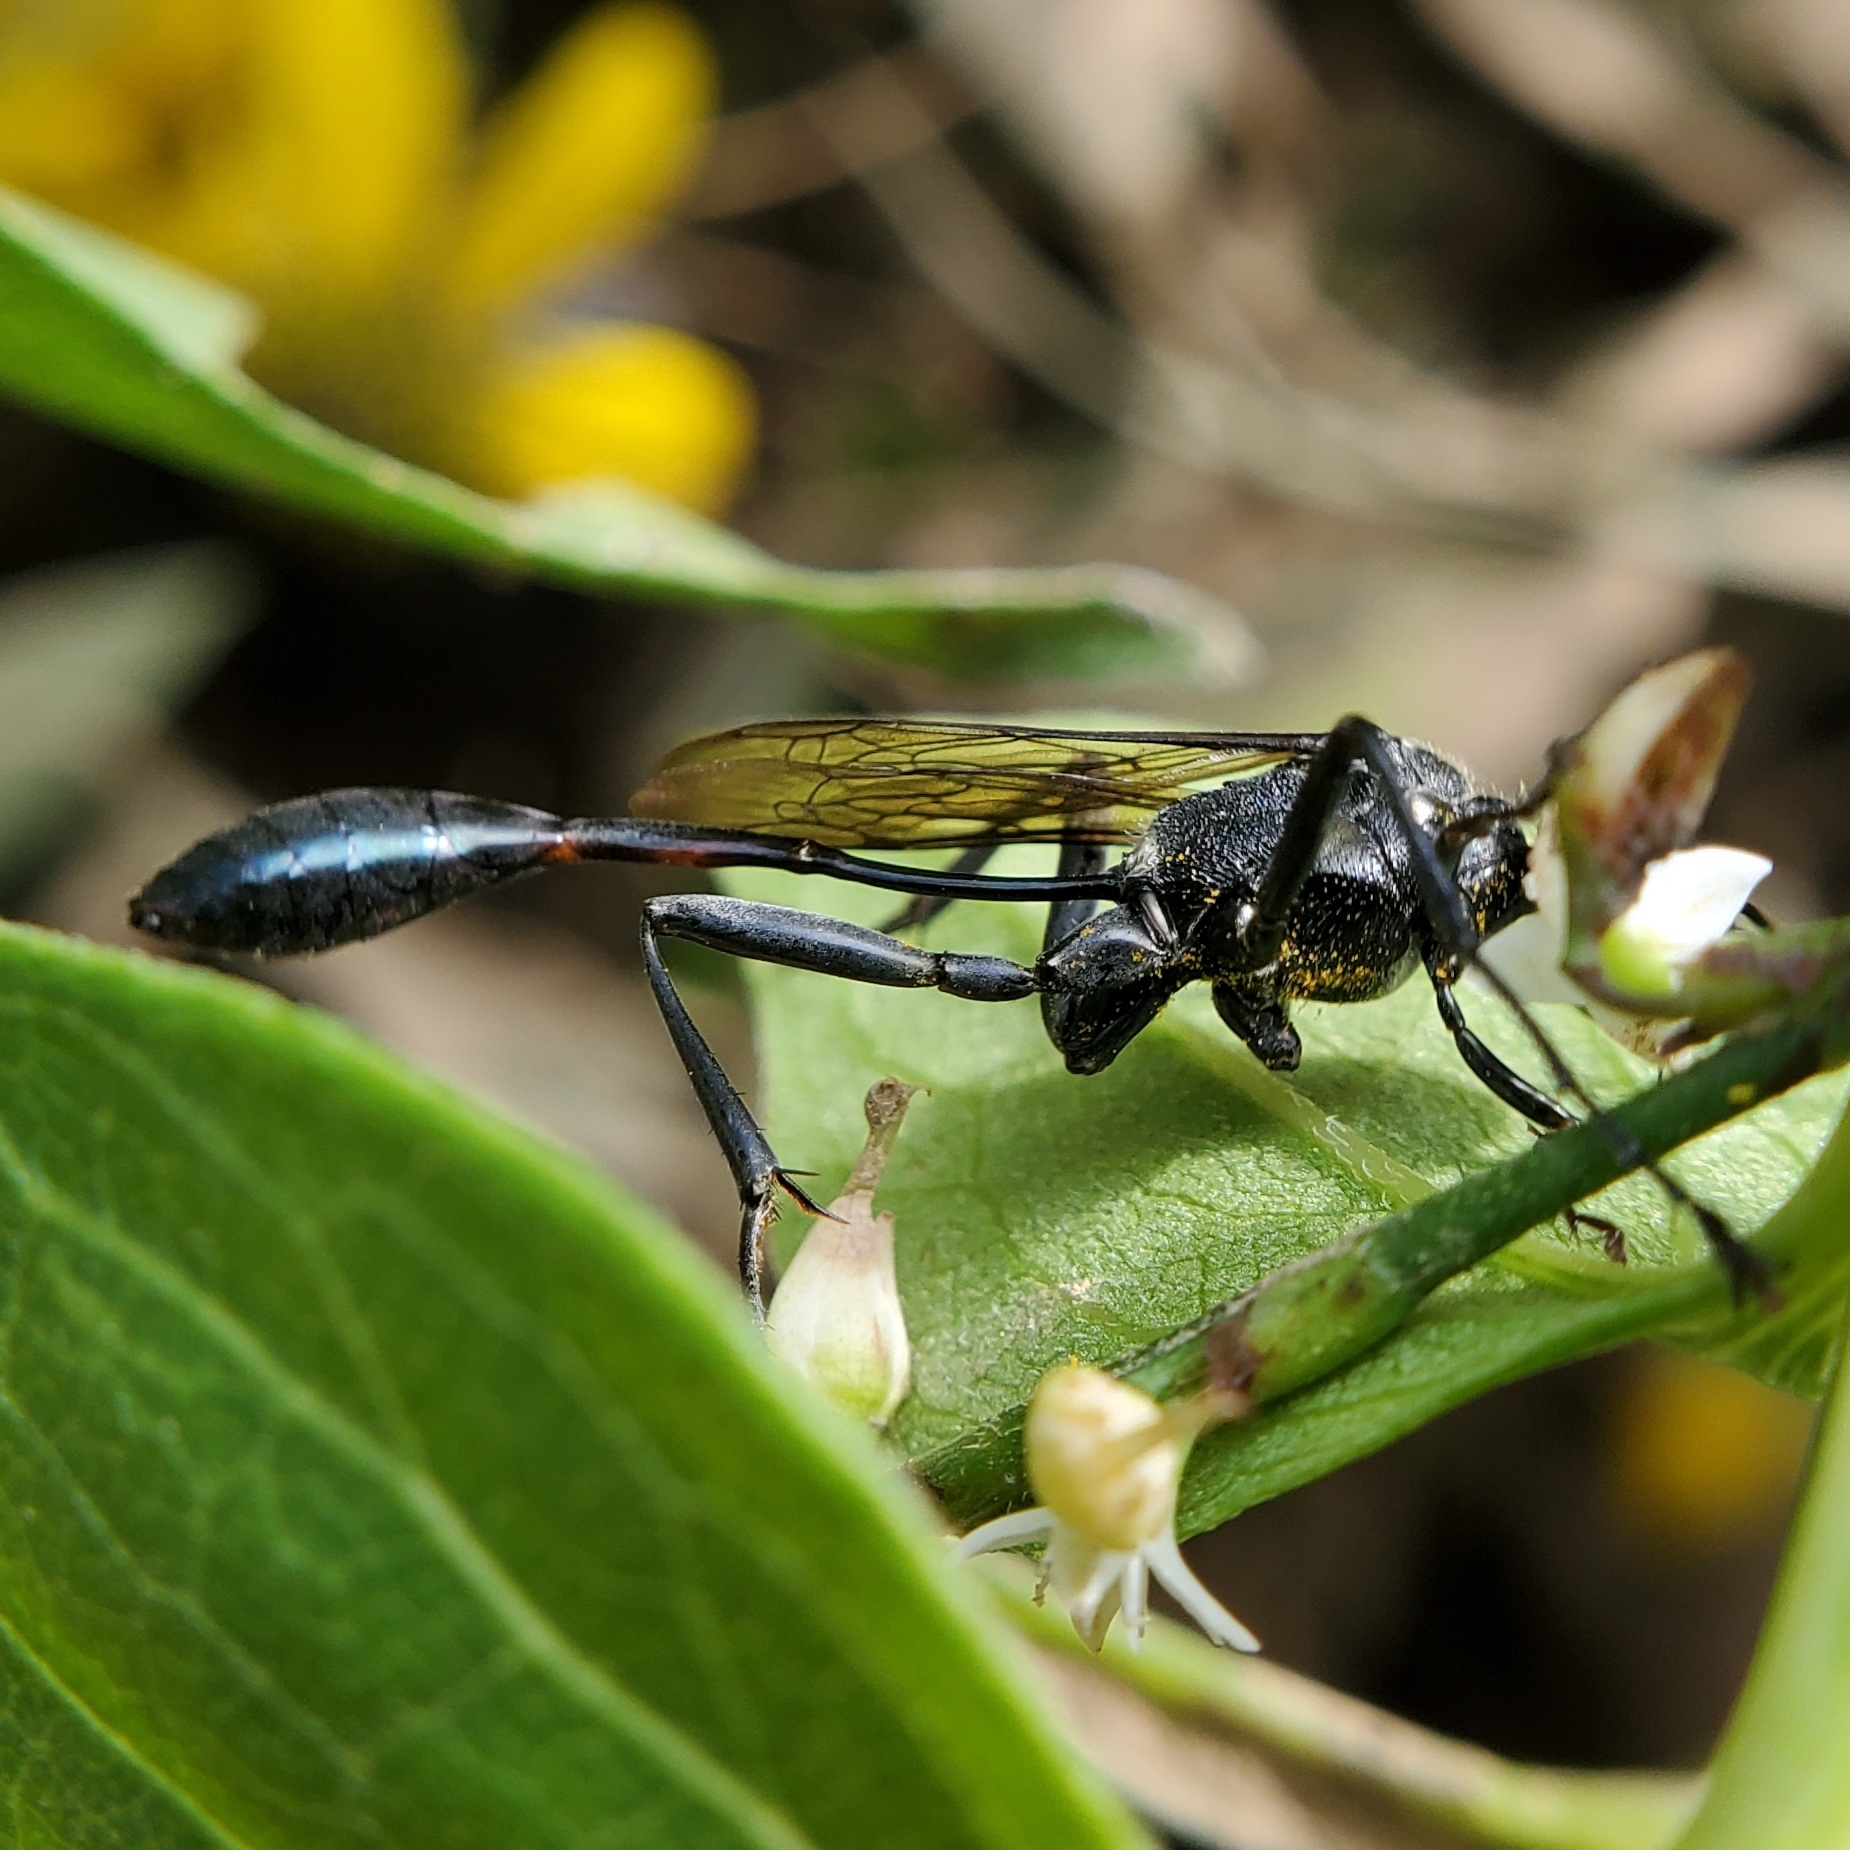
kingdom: Animalia
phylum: Arthropoda
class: Insecta
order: Hymenoptera
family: Sphecidae
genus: Eremnophila
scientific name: Eremnophila aureonotata
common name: Gold-marked thread-waisted wasp
